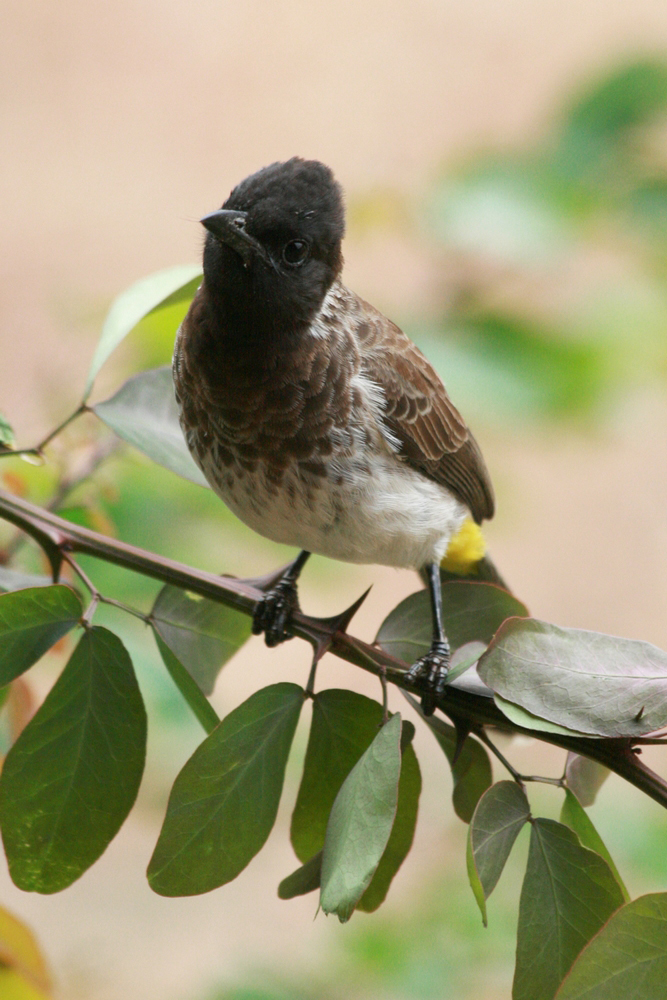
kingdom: Animalia
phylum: Chordata
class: Aves
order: Passeriformes
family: Pycnonotidae
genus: Pycnonotus
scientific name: Pycnonotus barbatus
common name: Common bulbul
